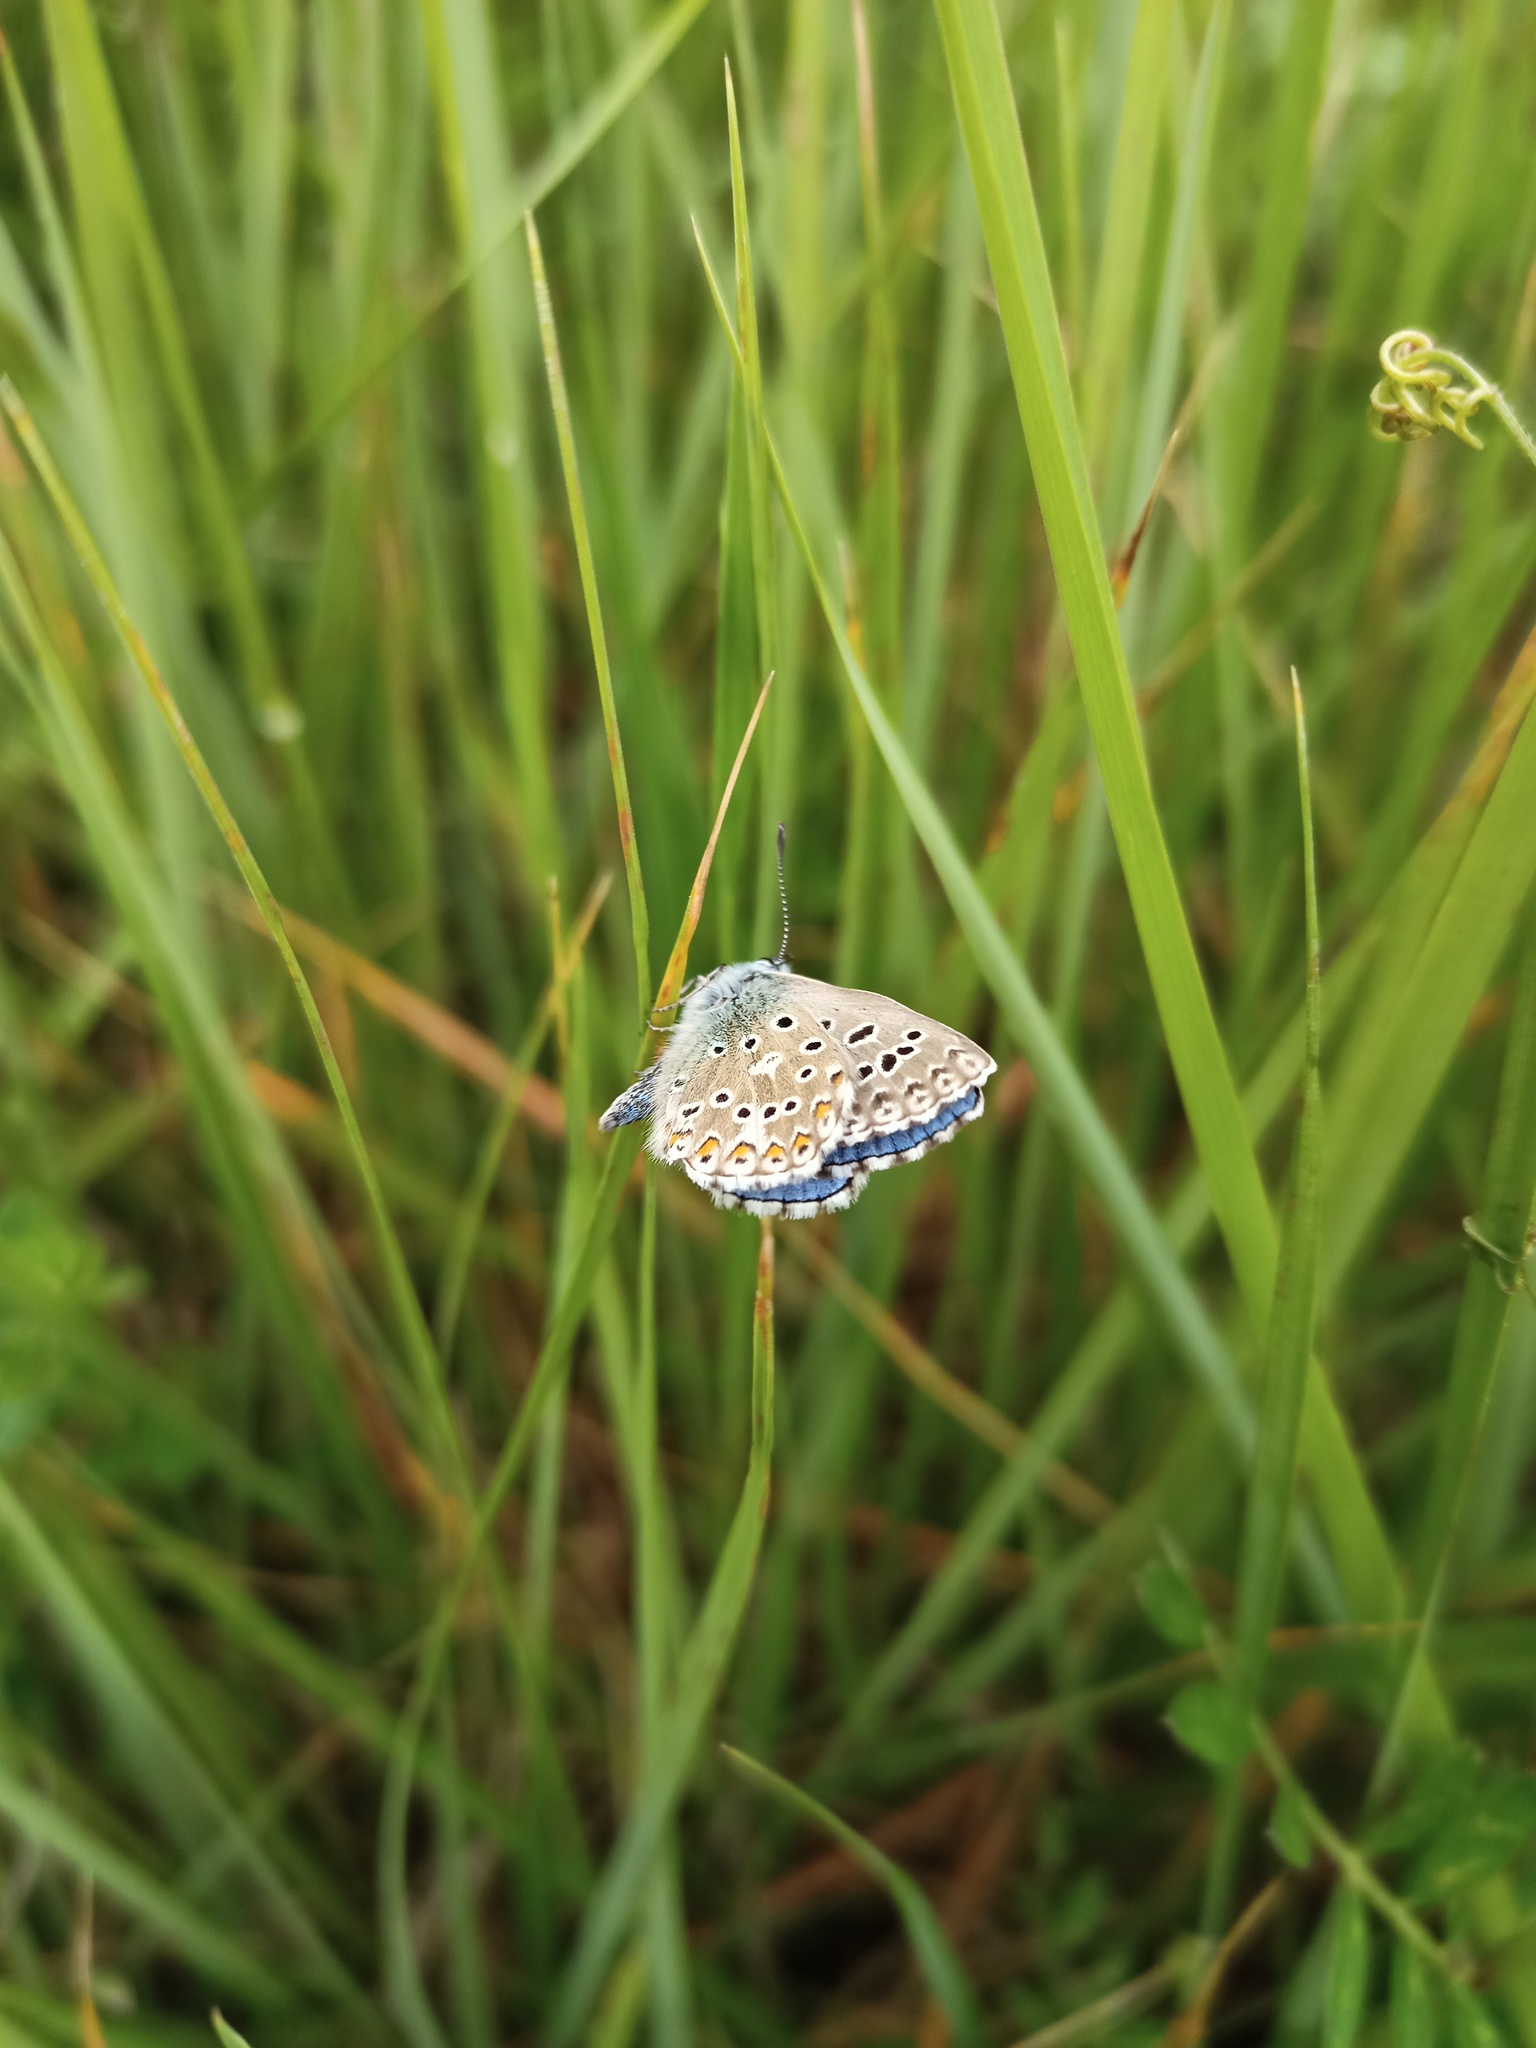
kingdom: Animalia
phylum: Arthropoda
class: Insecta
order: Lepidoptera
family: Lycaenidae
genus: Lysandra
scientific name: Lysandra bellargus
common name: Adonis blue
